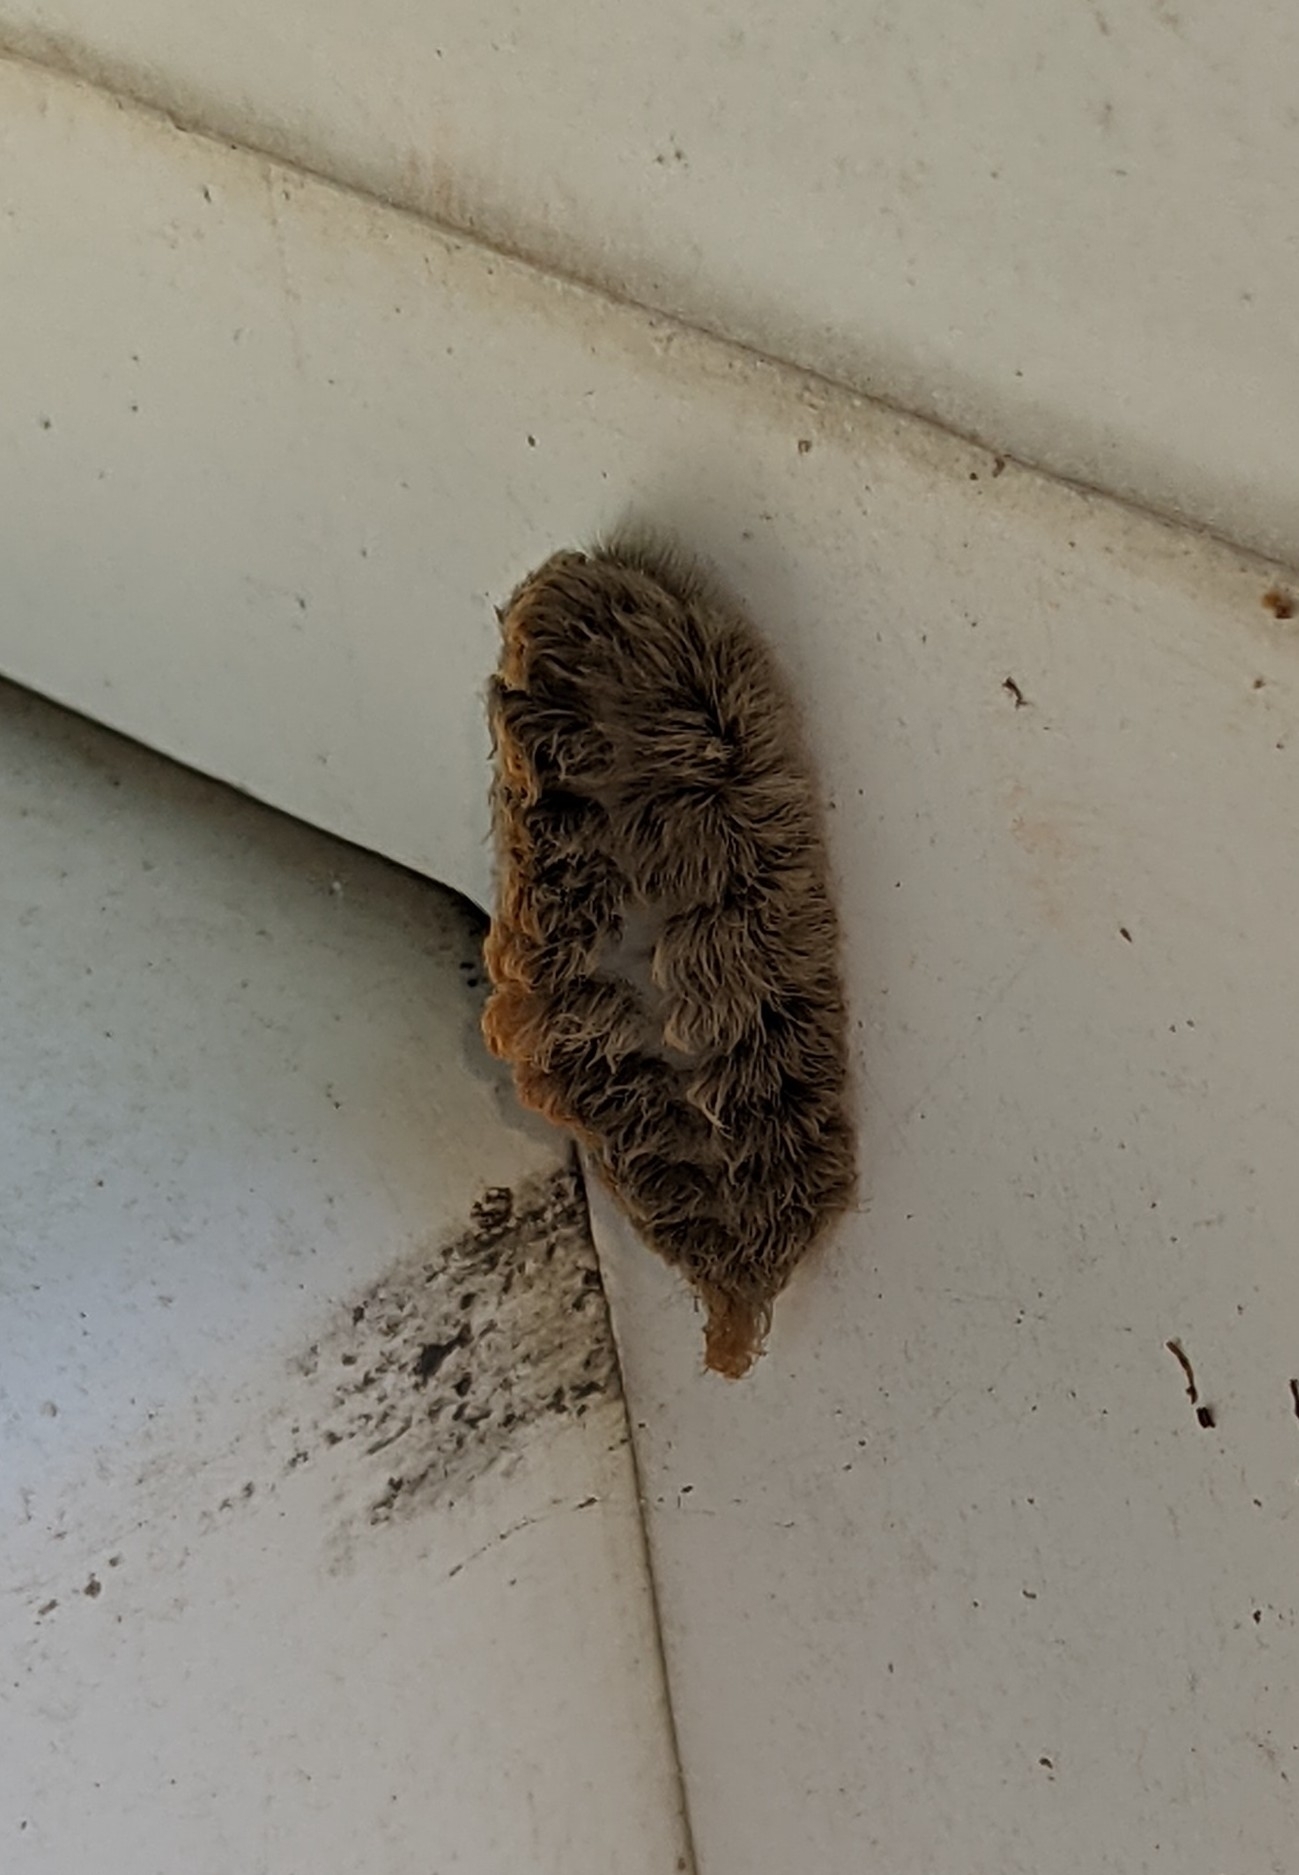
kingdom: Animalia
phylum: Arthropoda
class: Insecta
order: Lepidoptera
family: Megalopygidae
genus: Megalopyge
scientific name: Megalopyge opercularis
